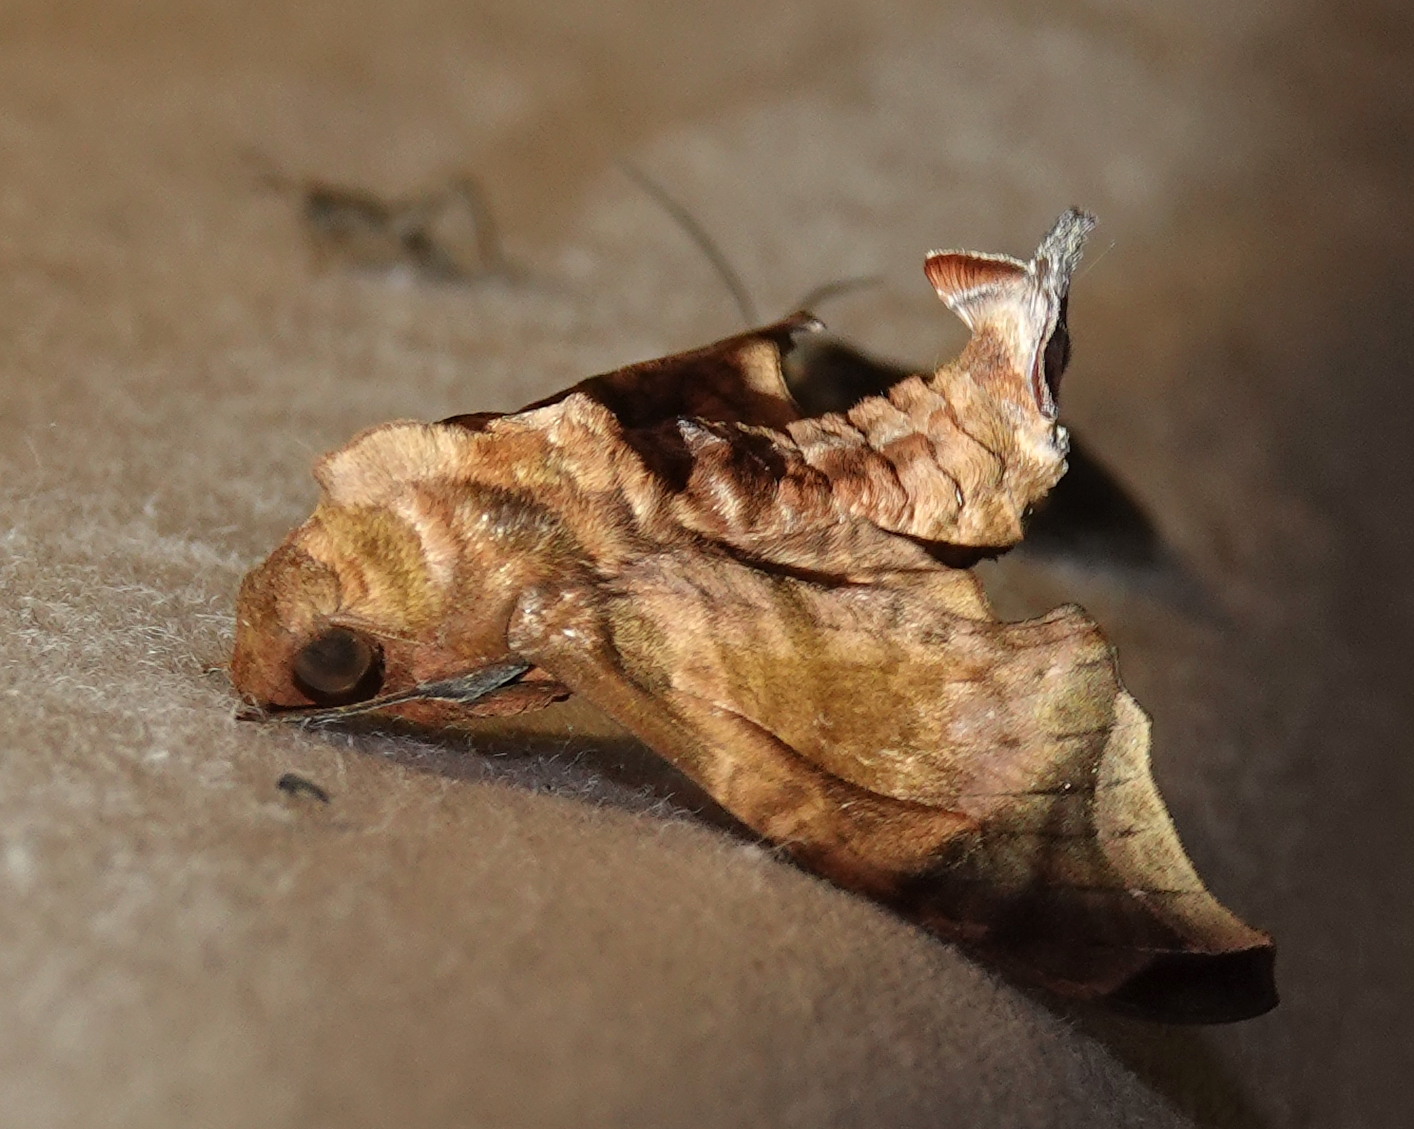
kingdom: Animalia
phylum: Arthropoda
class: Insecta
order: Lepidoptera
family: Sphingidae
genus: Enyo
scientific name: Enyo gorgon
